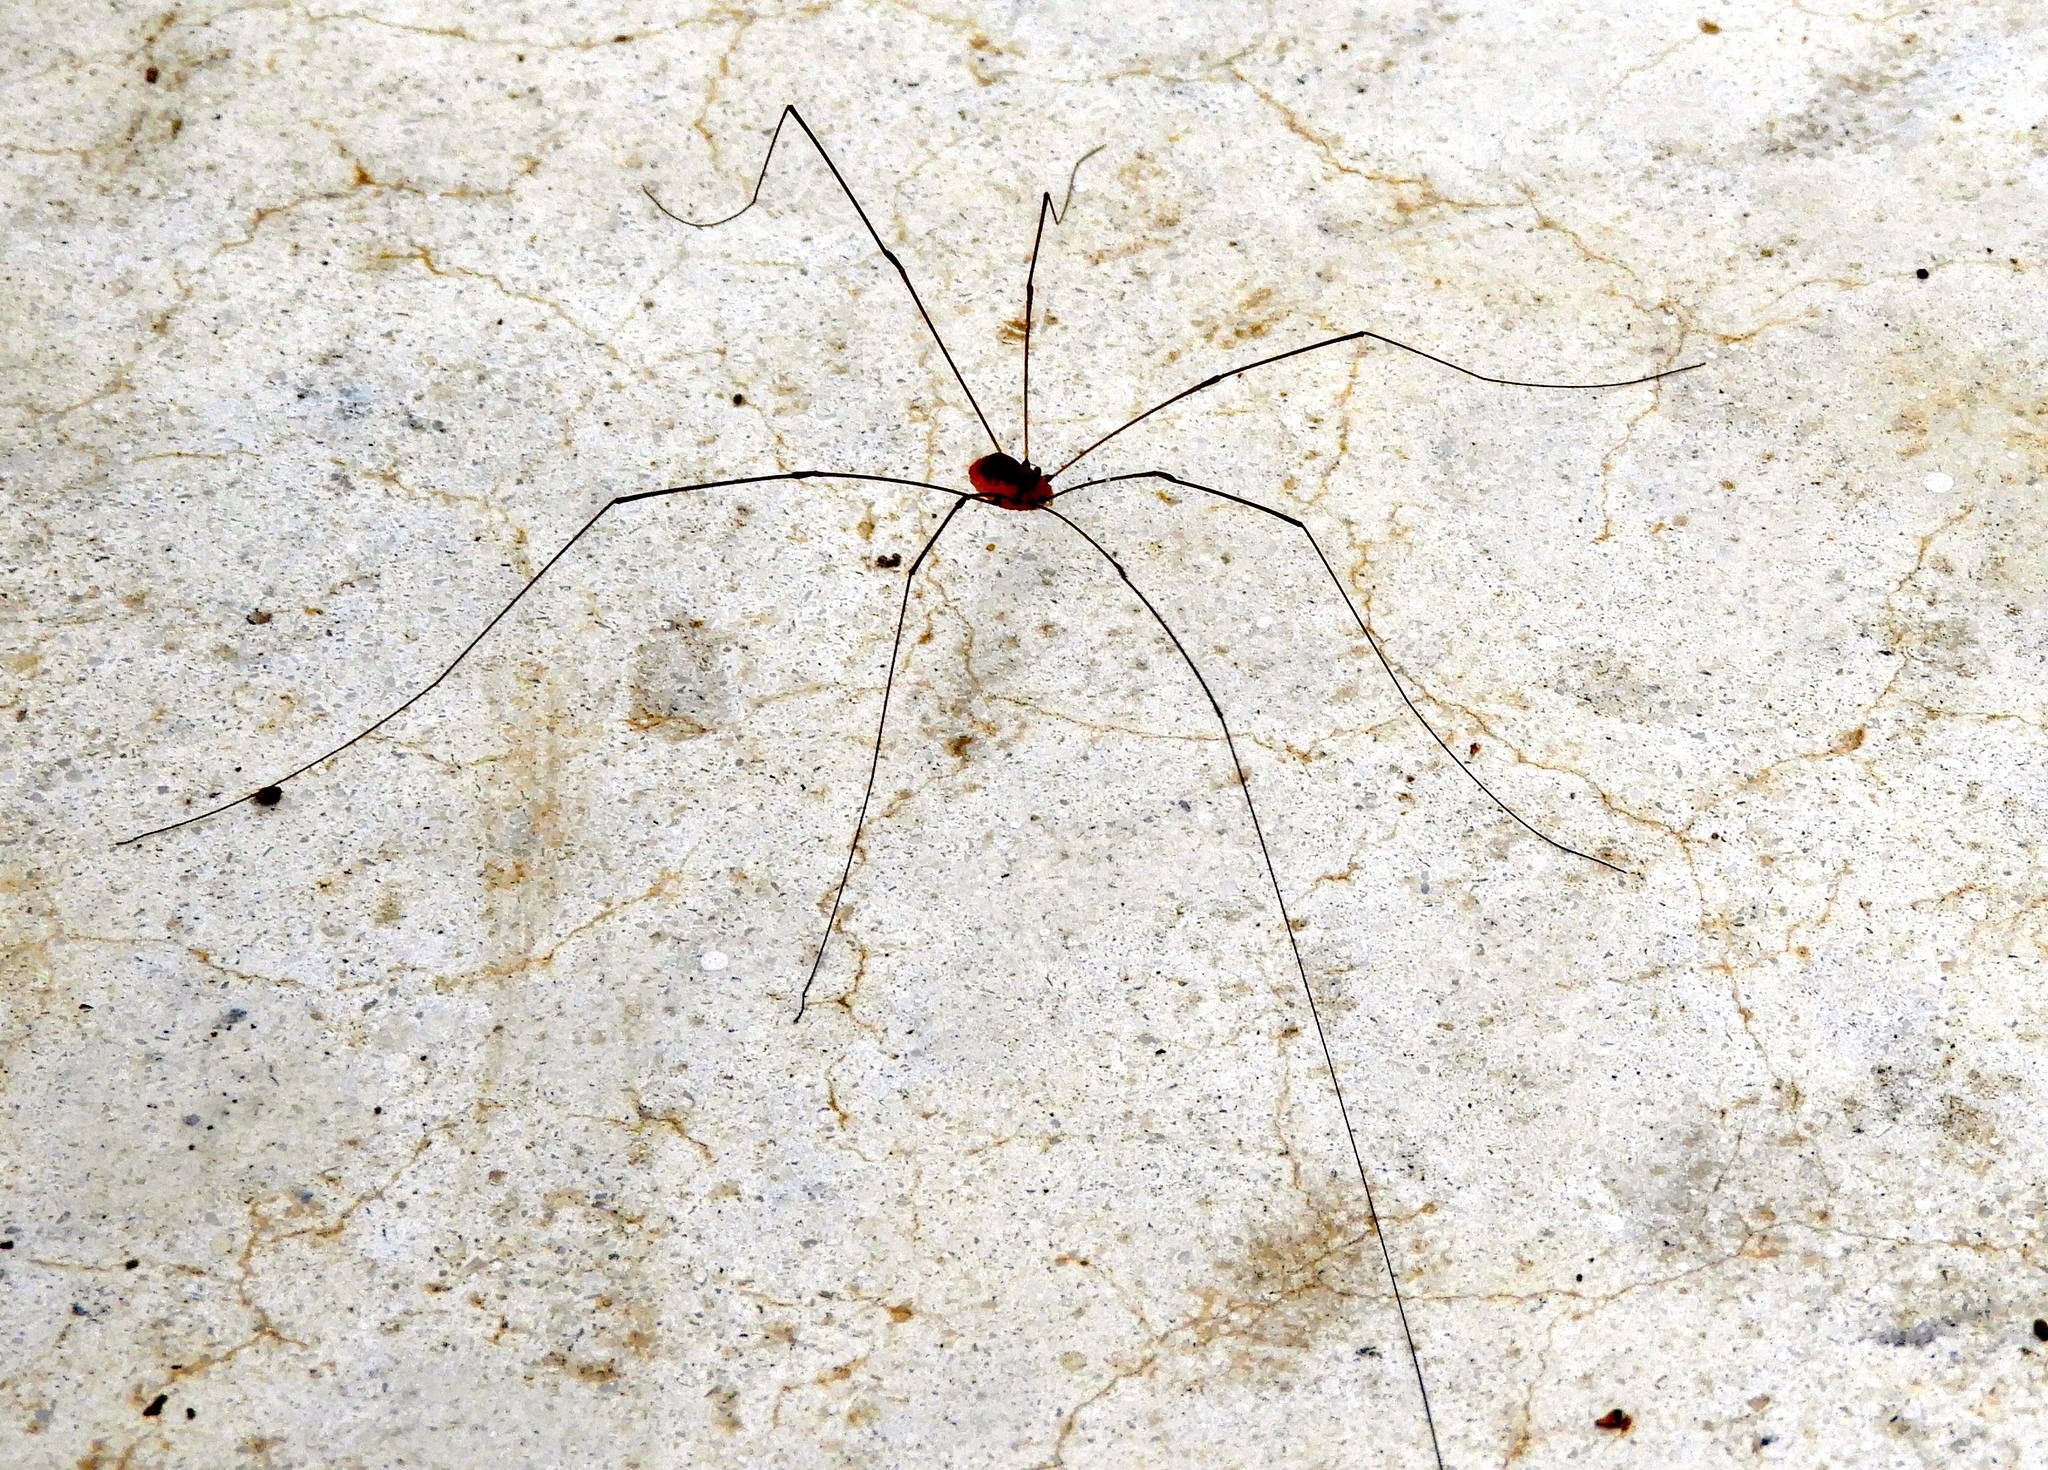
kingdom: Animalia
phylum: Arthropoda
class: Arachnida
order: Opiliones
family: Sclerosomatidae
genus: Leiobunum
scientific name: Leiobunum
